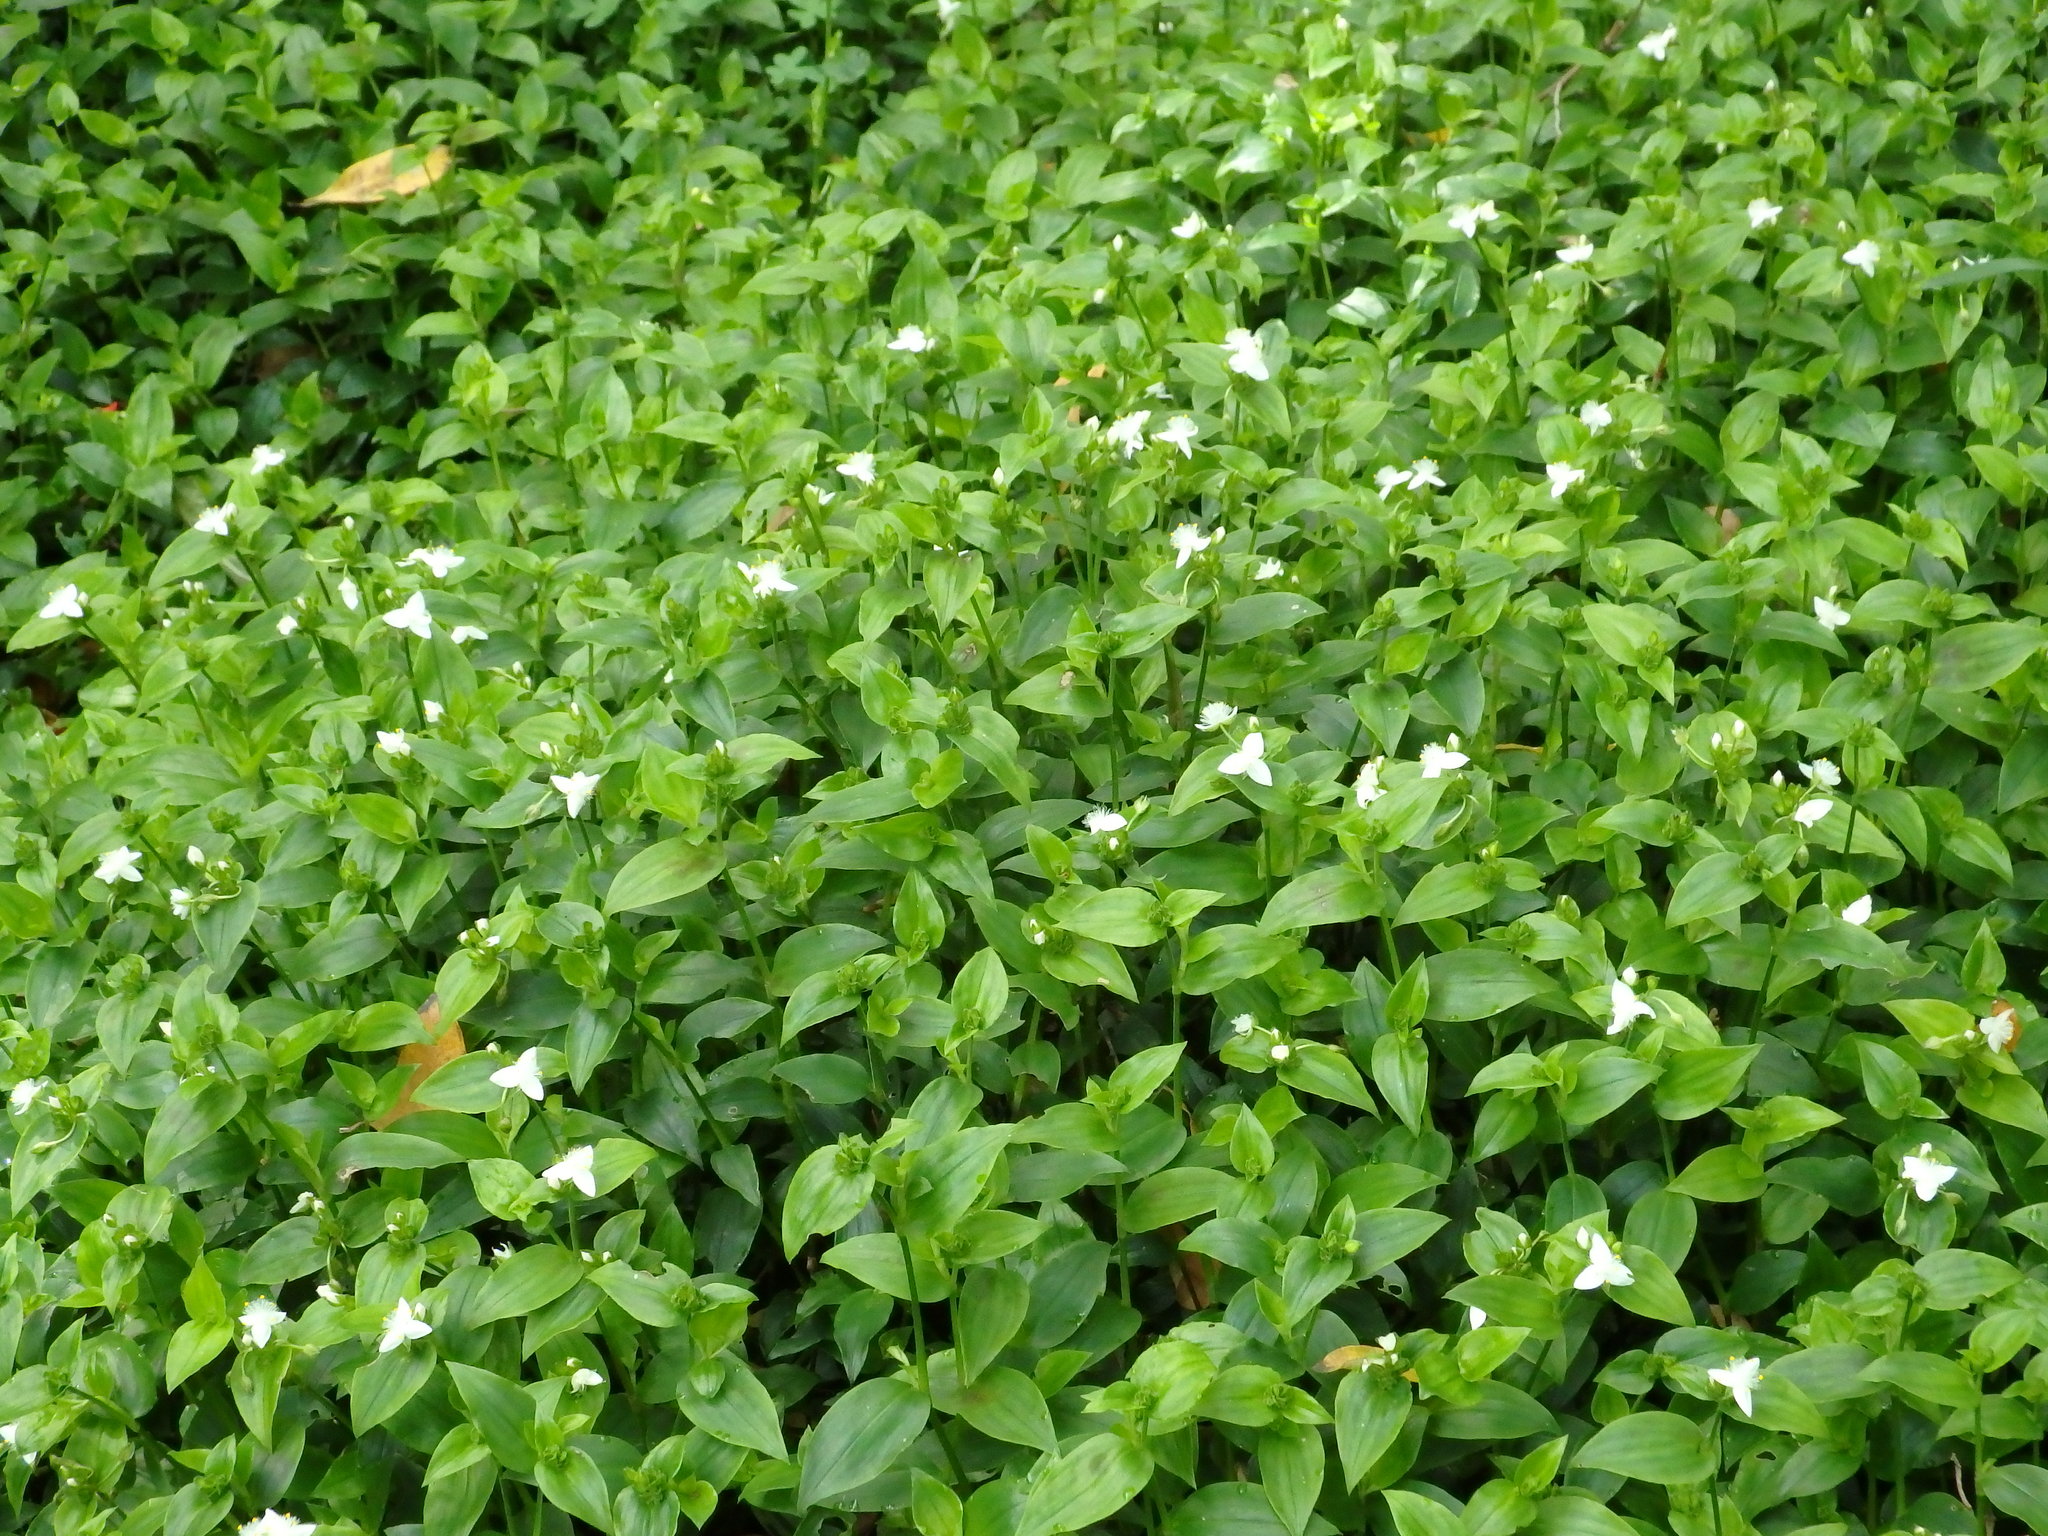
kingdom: Plantae
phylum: Tracheophyta
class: Liliopsida
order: Commelinales
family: Commelinaceae
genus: Tradescantia
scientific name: Tradescantia fluminensis
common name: Wandering-jew
